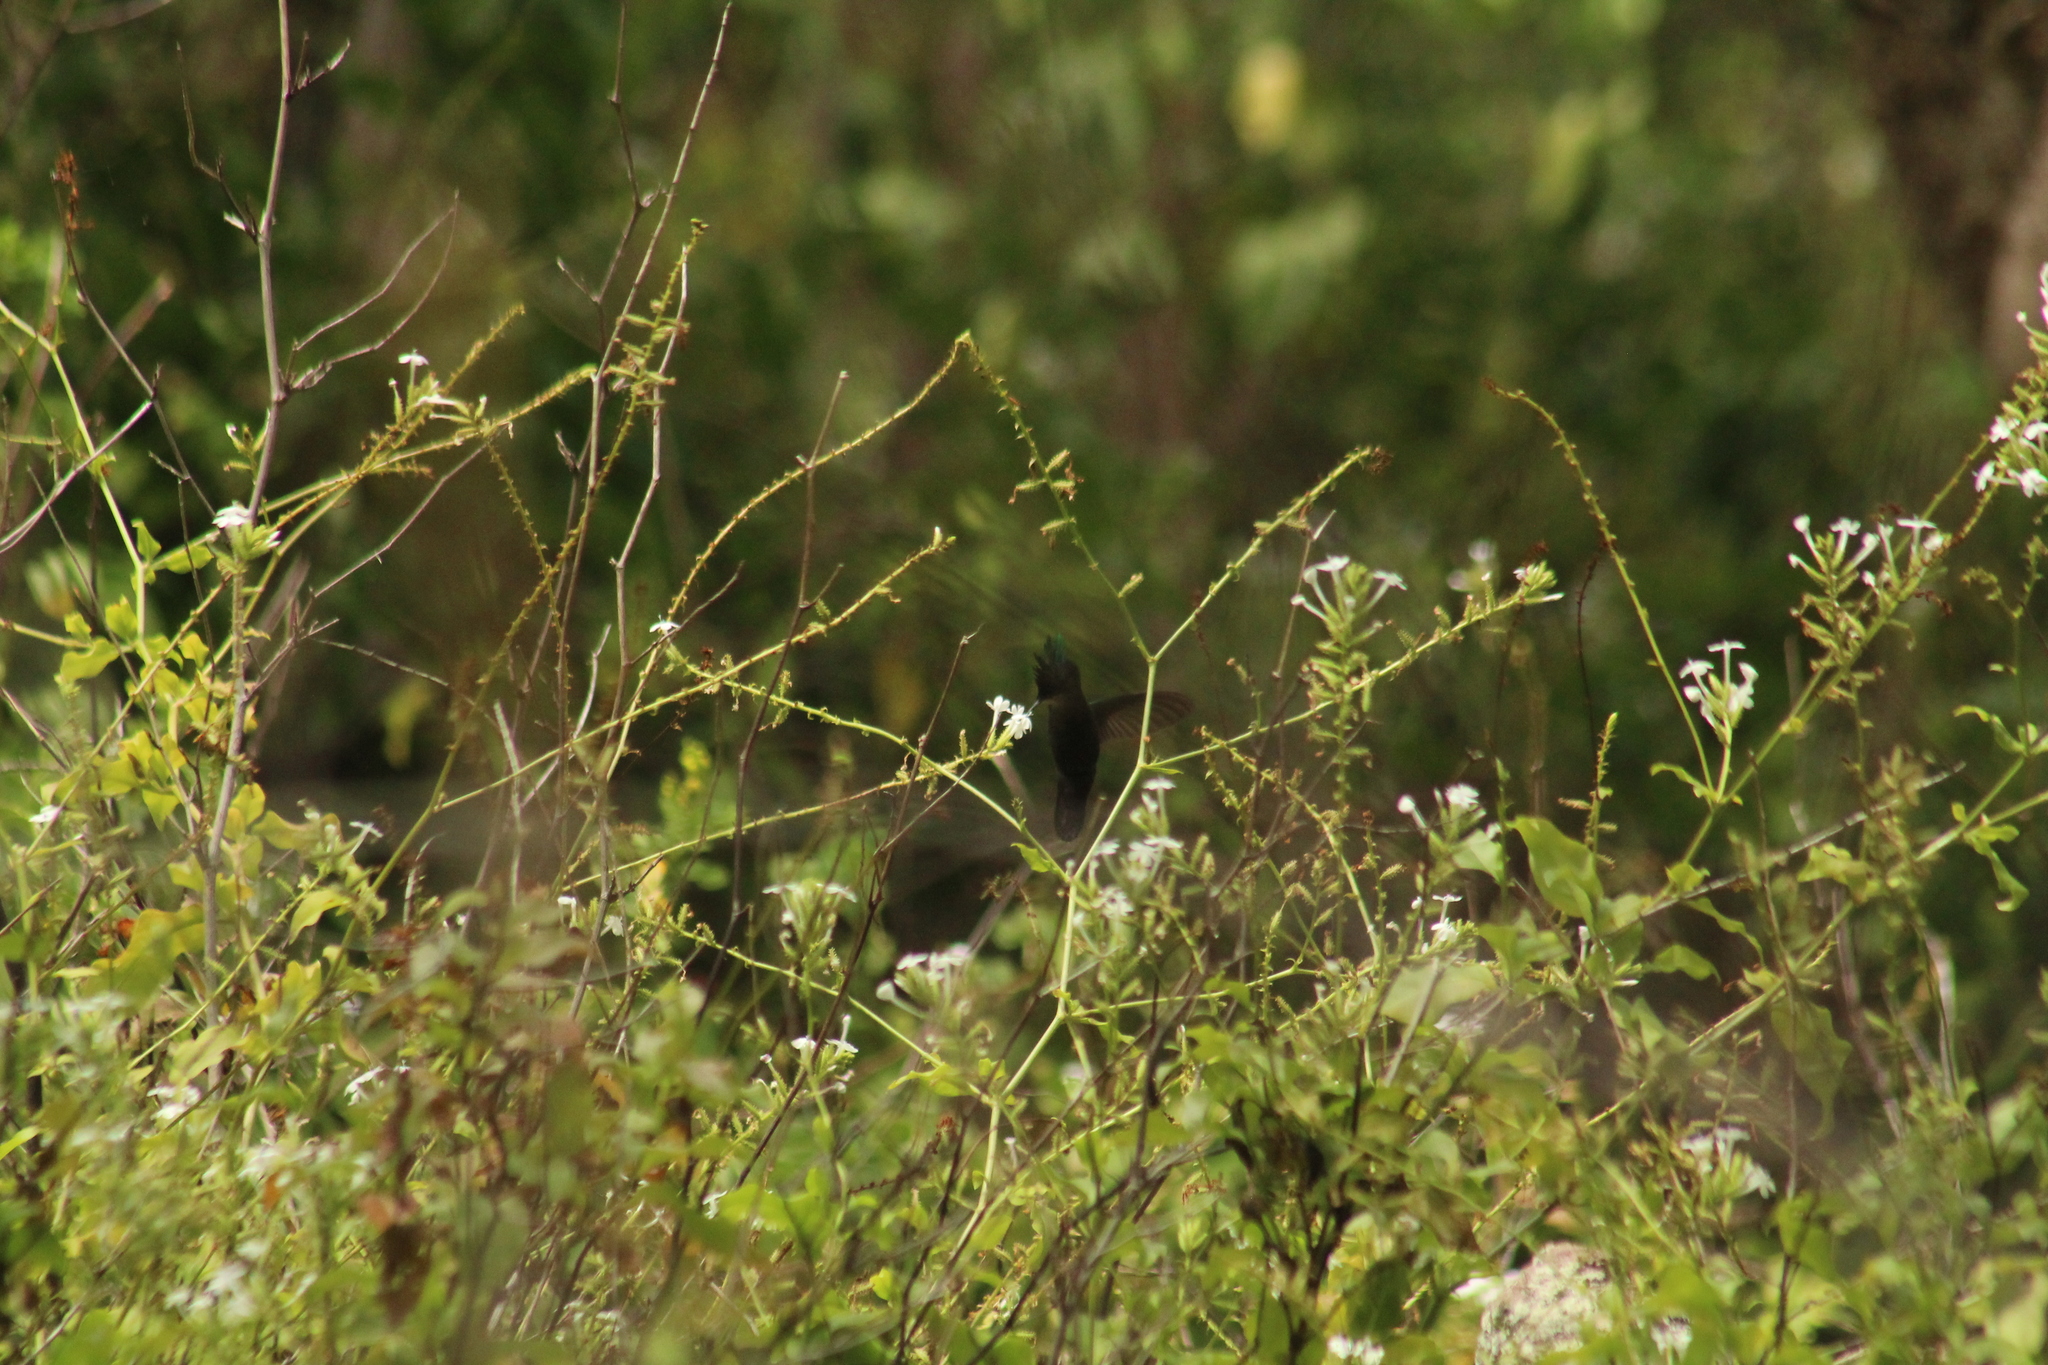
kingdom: Animalia
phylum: Chordata
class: Aves
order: Apodiformes
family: Trochilidae
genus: Orthorhyncus
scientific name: Orthorhyncus cristatus
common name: Antillean crested hummingbird
